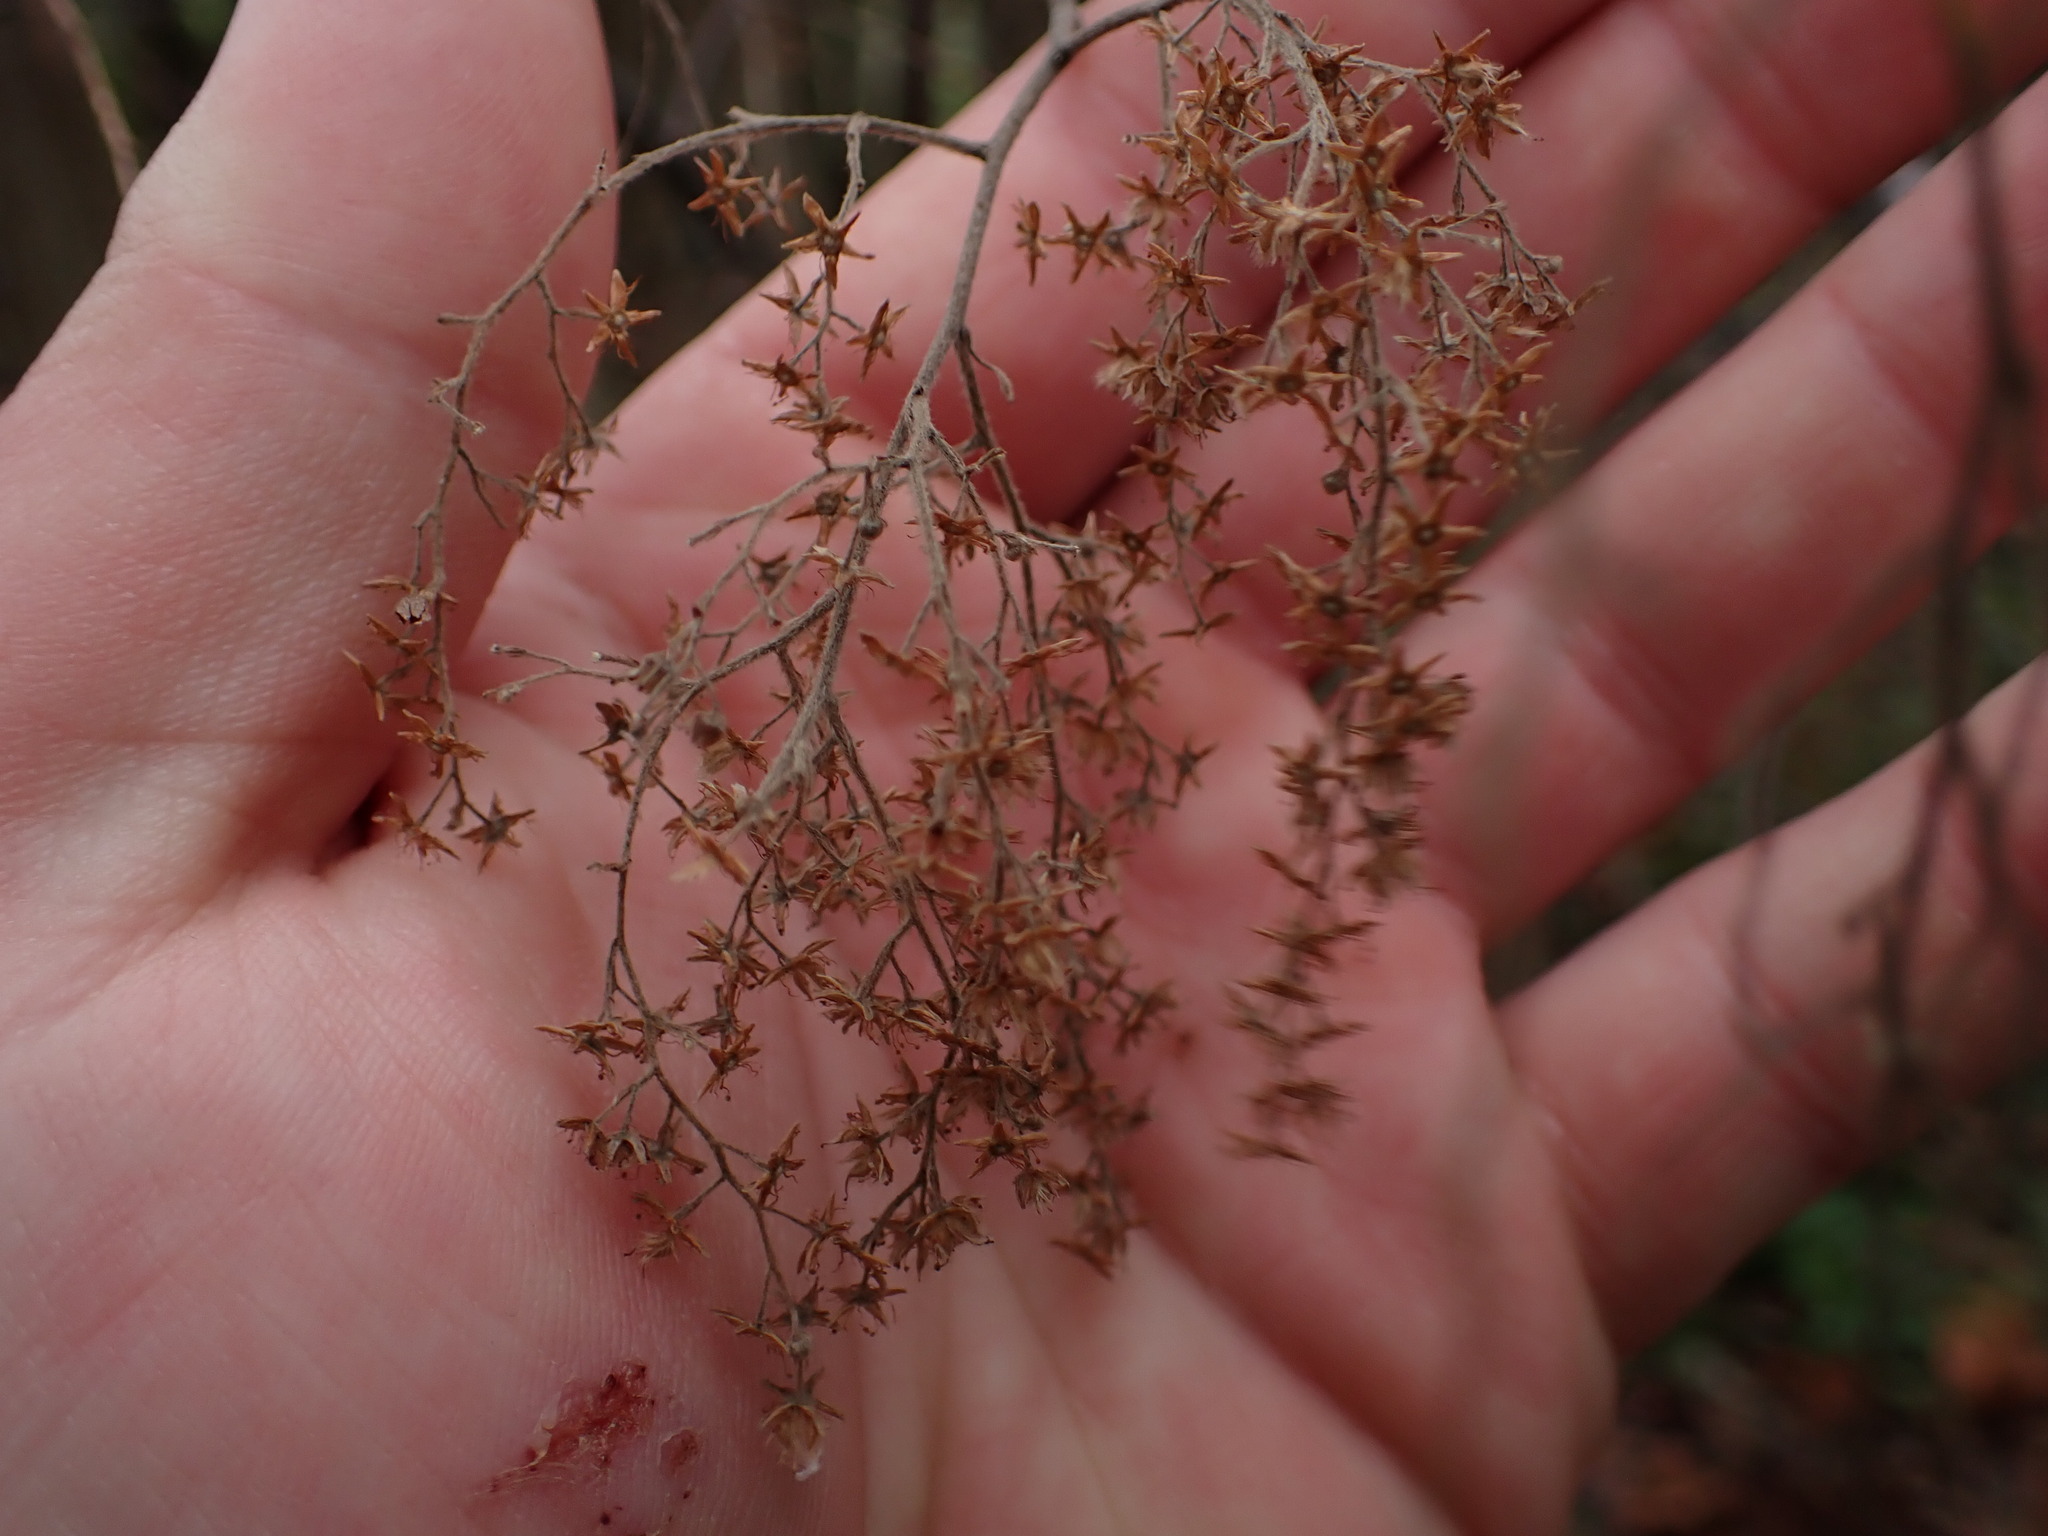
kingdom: Plantae
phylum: Tracheophyta
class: Magnoliopsida
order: Rosales
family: Rosaceae
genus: Holodiscus
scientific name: Holodiscus discolor
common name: Oceanspray
